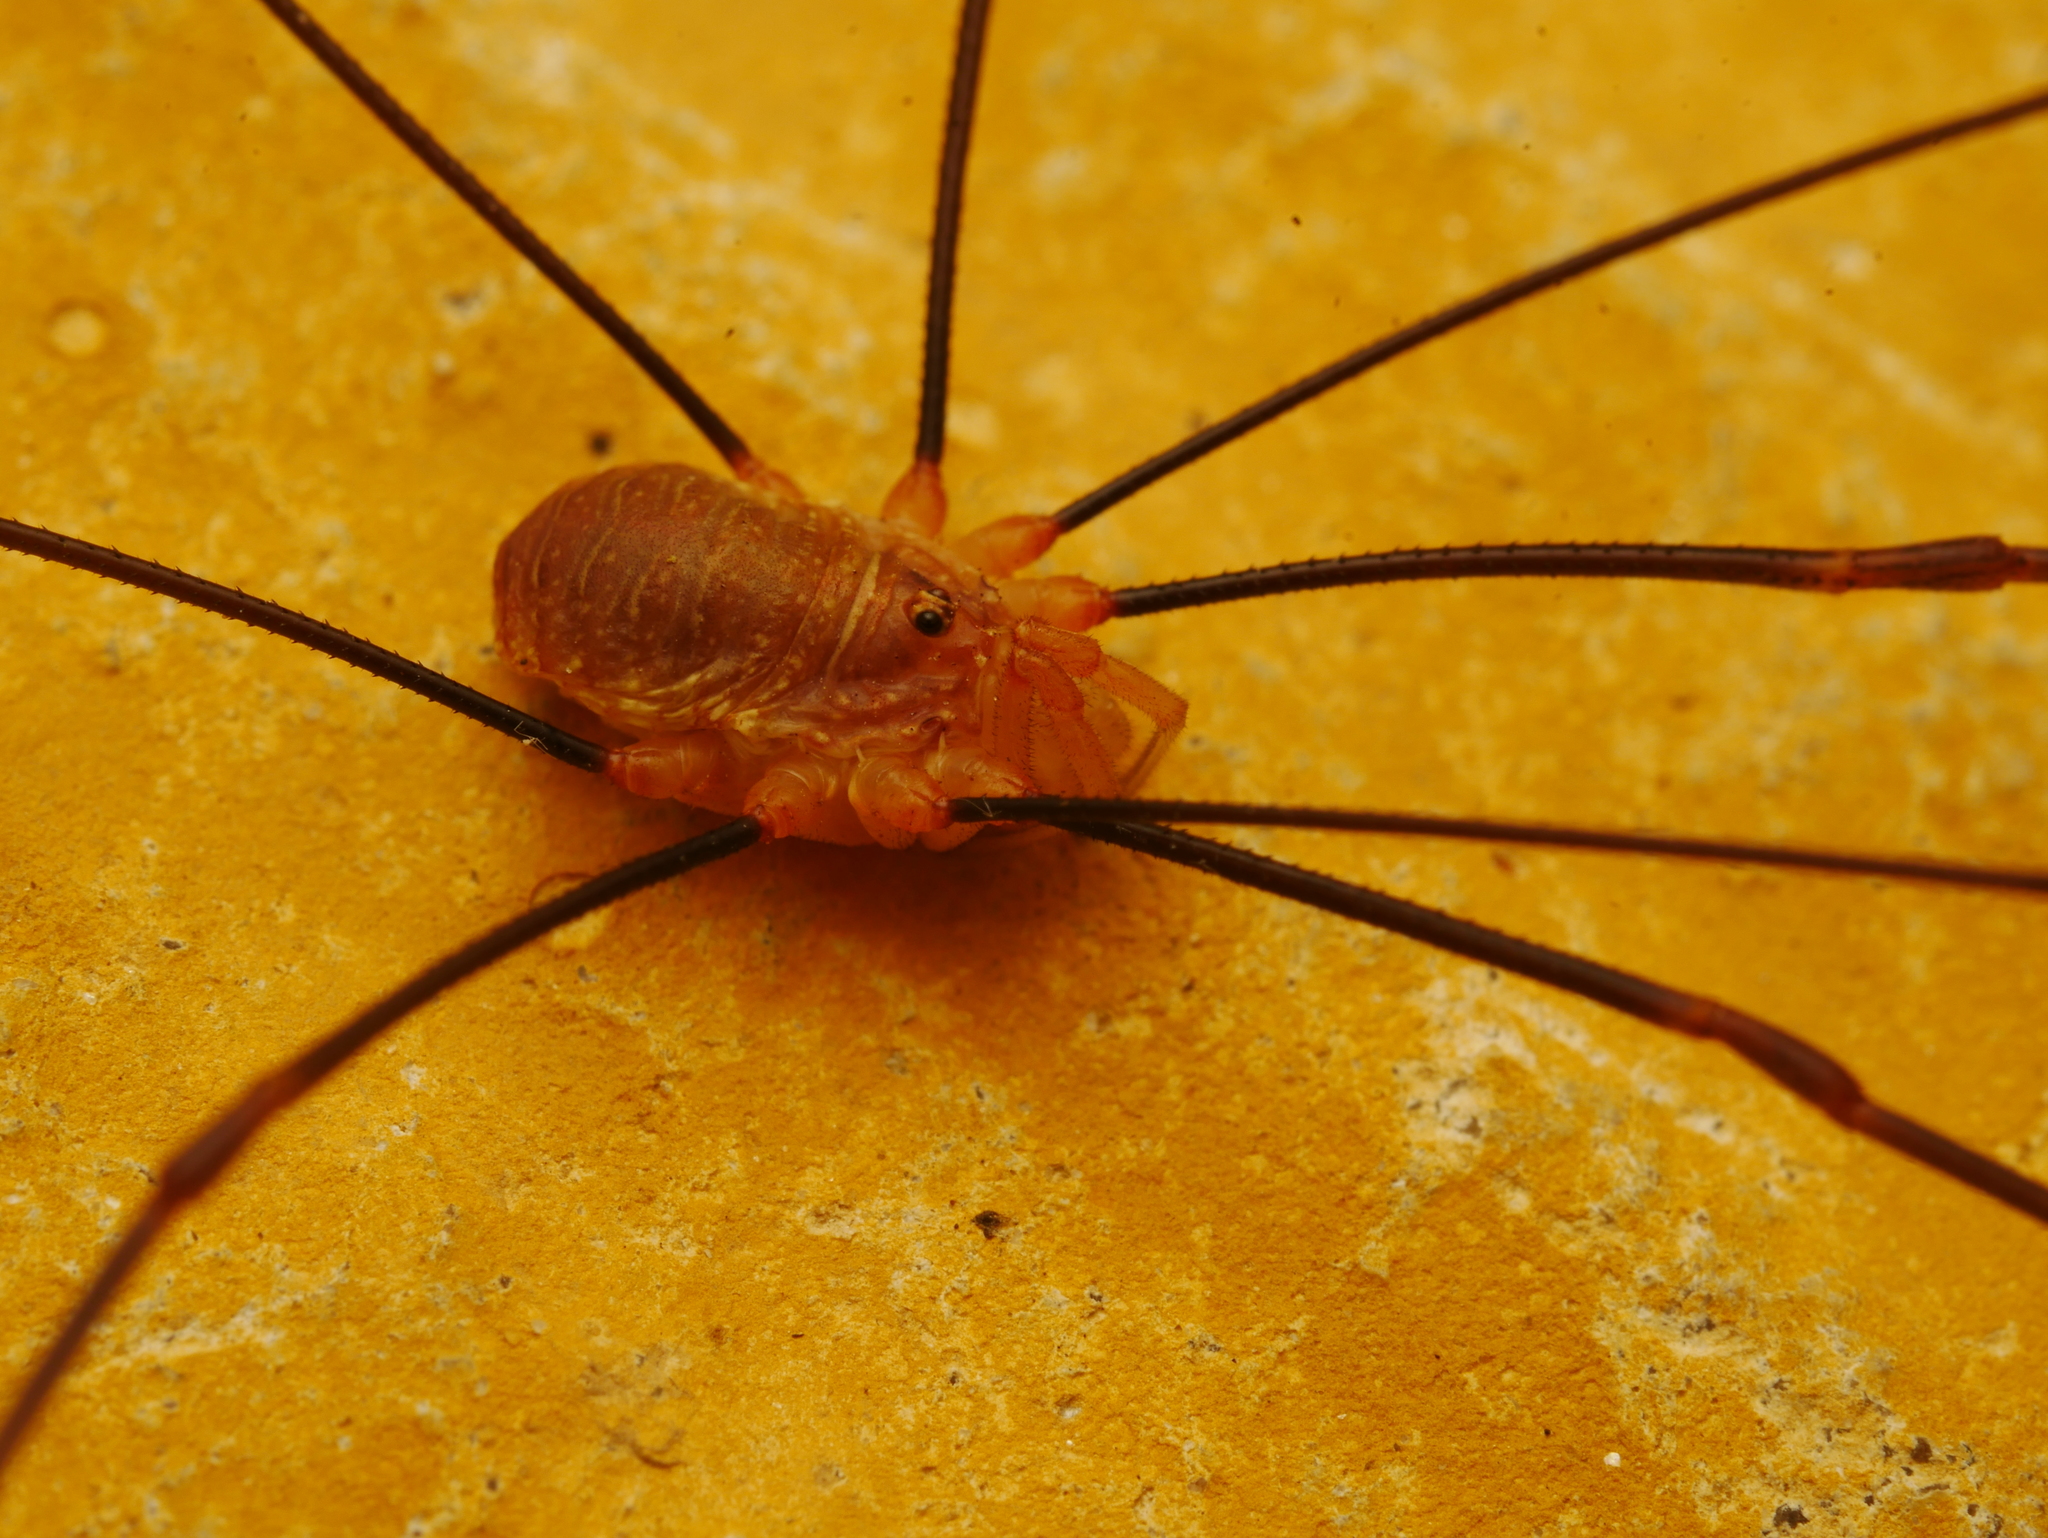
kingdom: Animalia
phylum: Arthropoda
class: Arachnida
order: Opiliones
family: Phalangiidae
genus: Opilio
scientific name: Opilio canestrinii
